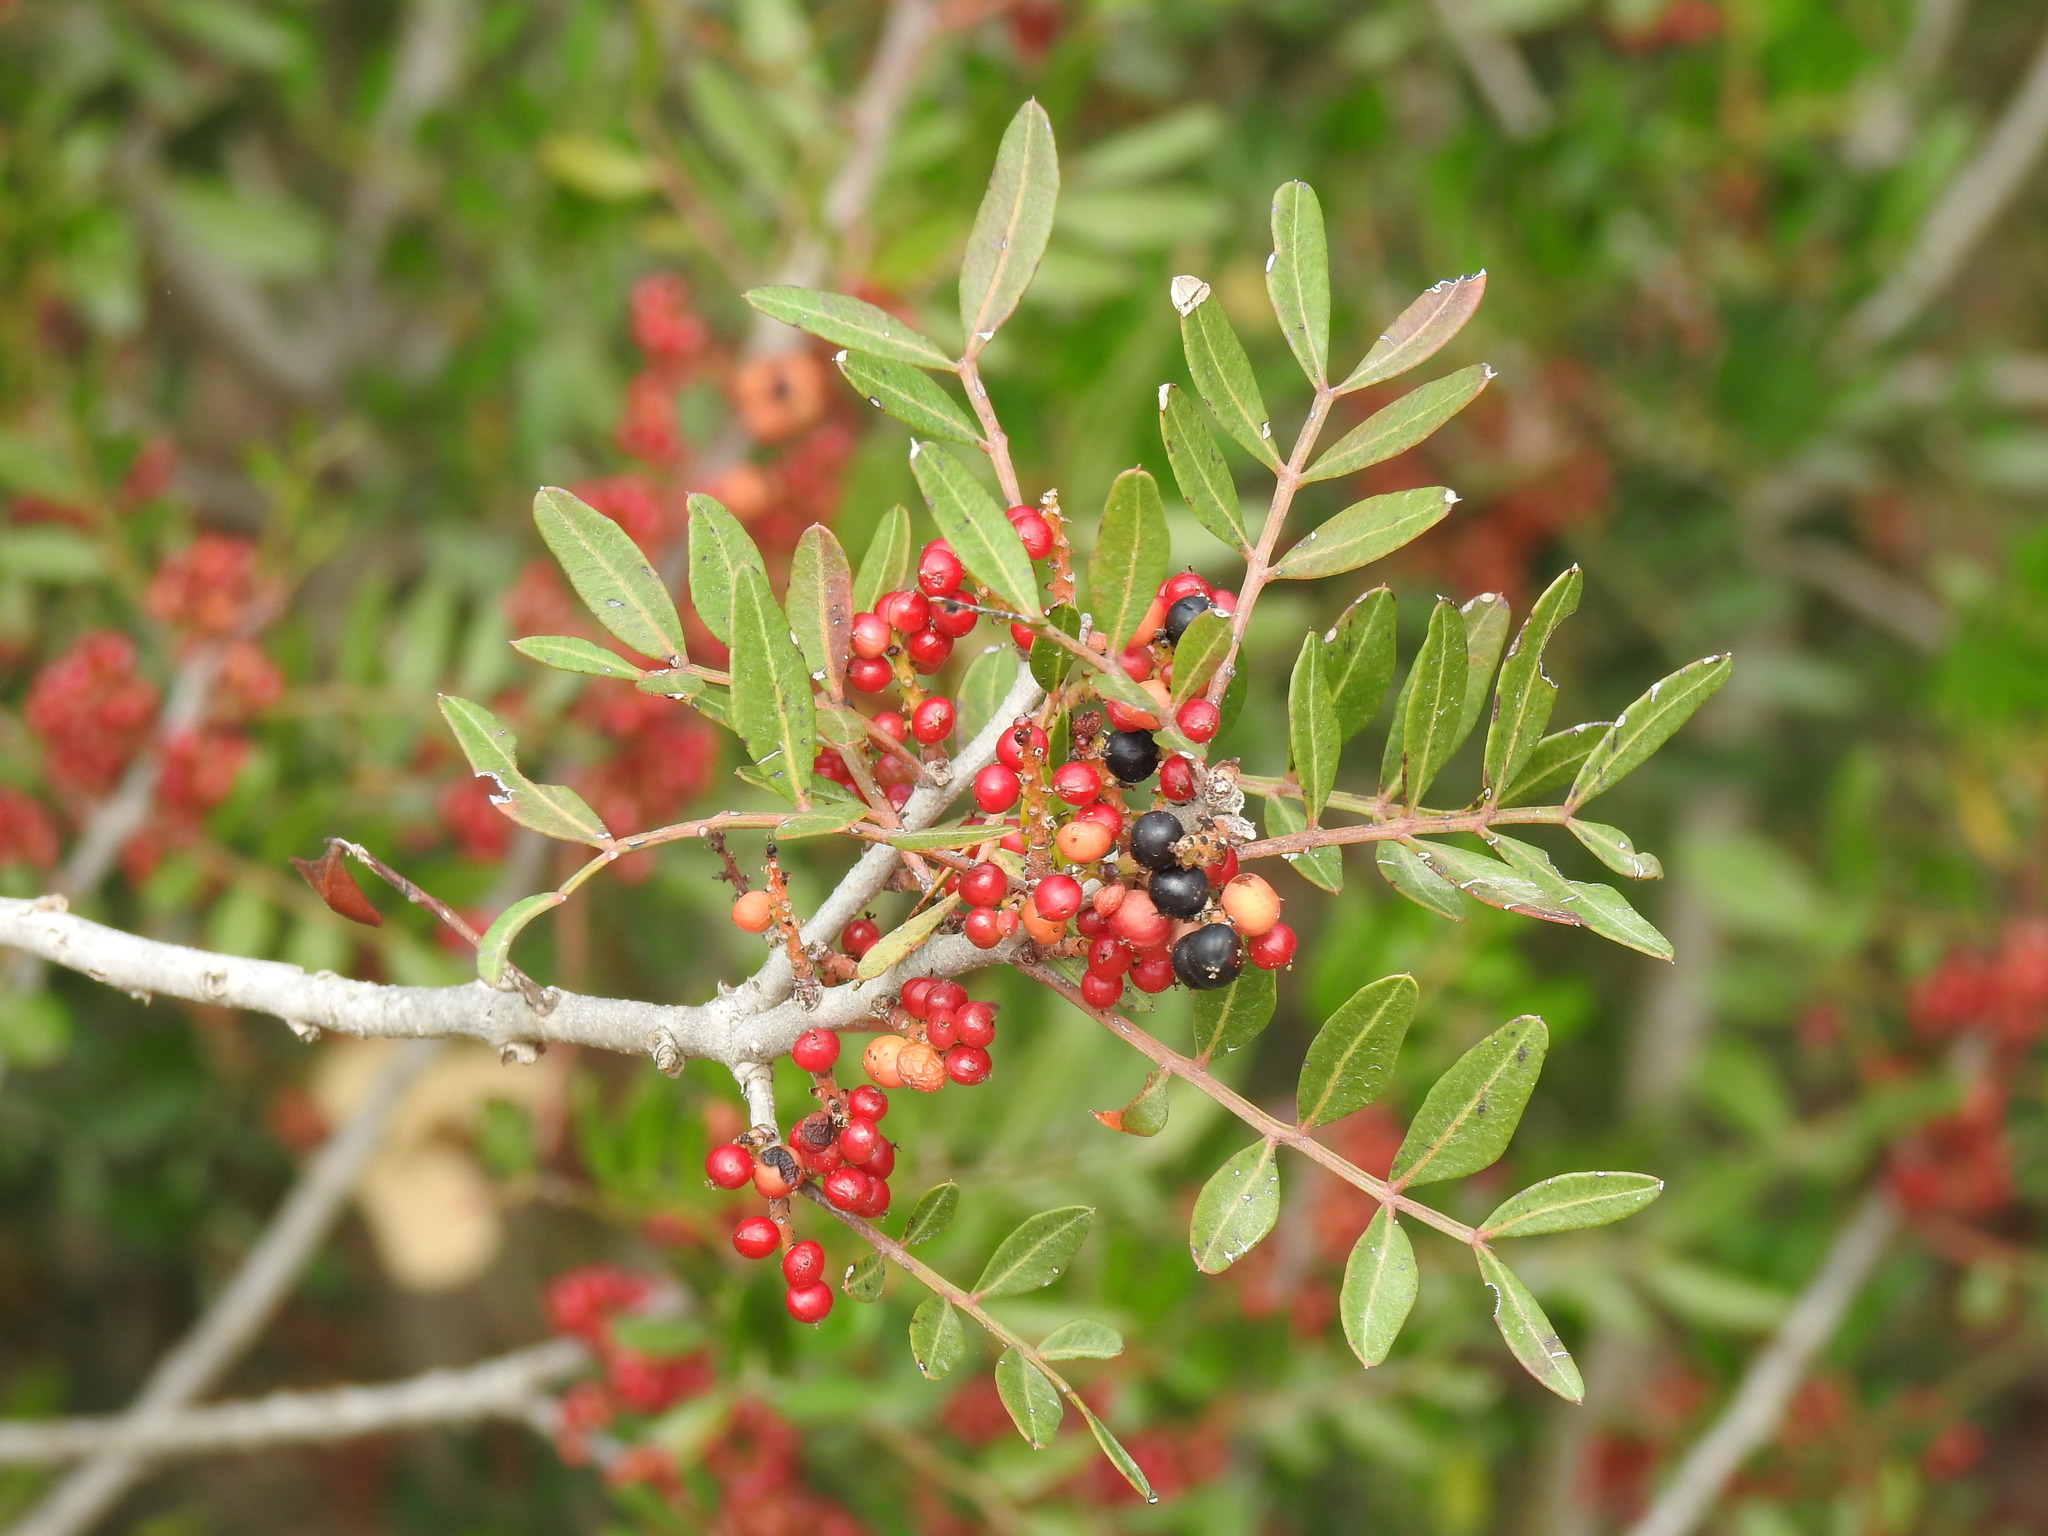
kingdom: Plantae
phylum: Tracheophyta
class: Magnoliopsida
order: Sapindales
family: Anacardiaceae
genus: Pistacia
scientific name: Pistacia lentiscus
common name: Lentisk
